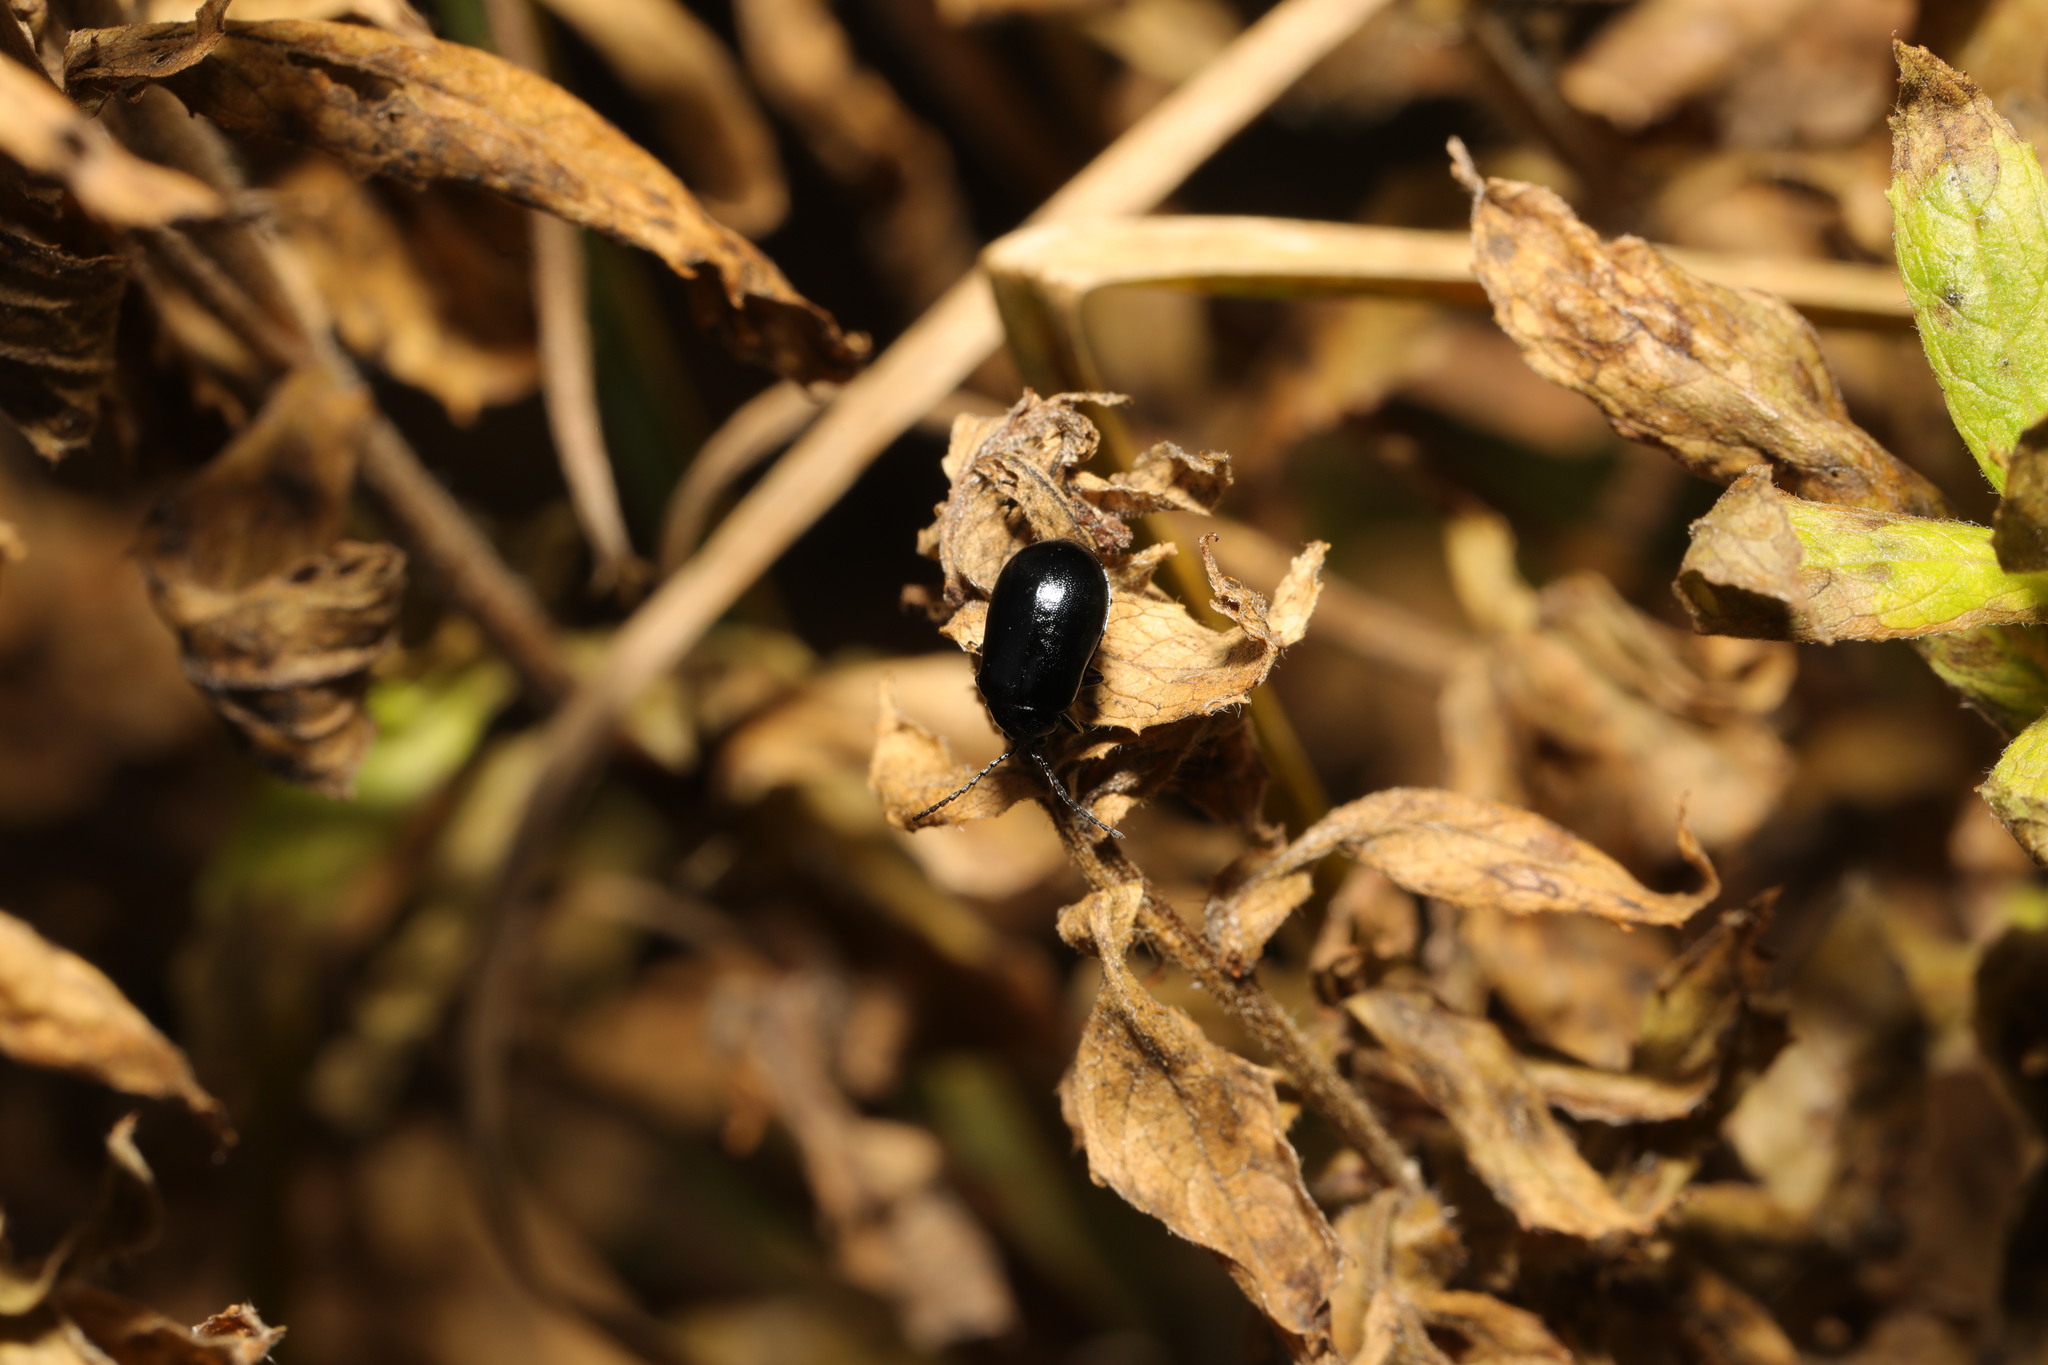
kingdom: Animalia
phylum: Arthropoda
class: Insecta
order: Coleoptera
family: Chrysomelidae
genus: Agelastica
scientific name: Agelastica alni
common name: Alder leaf beetle
